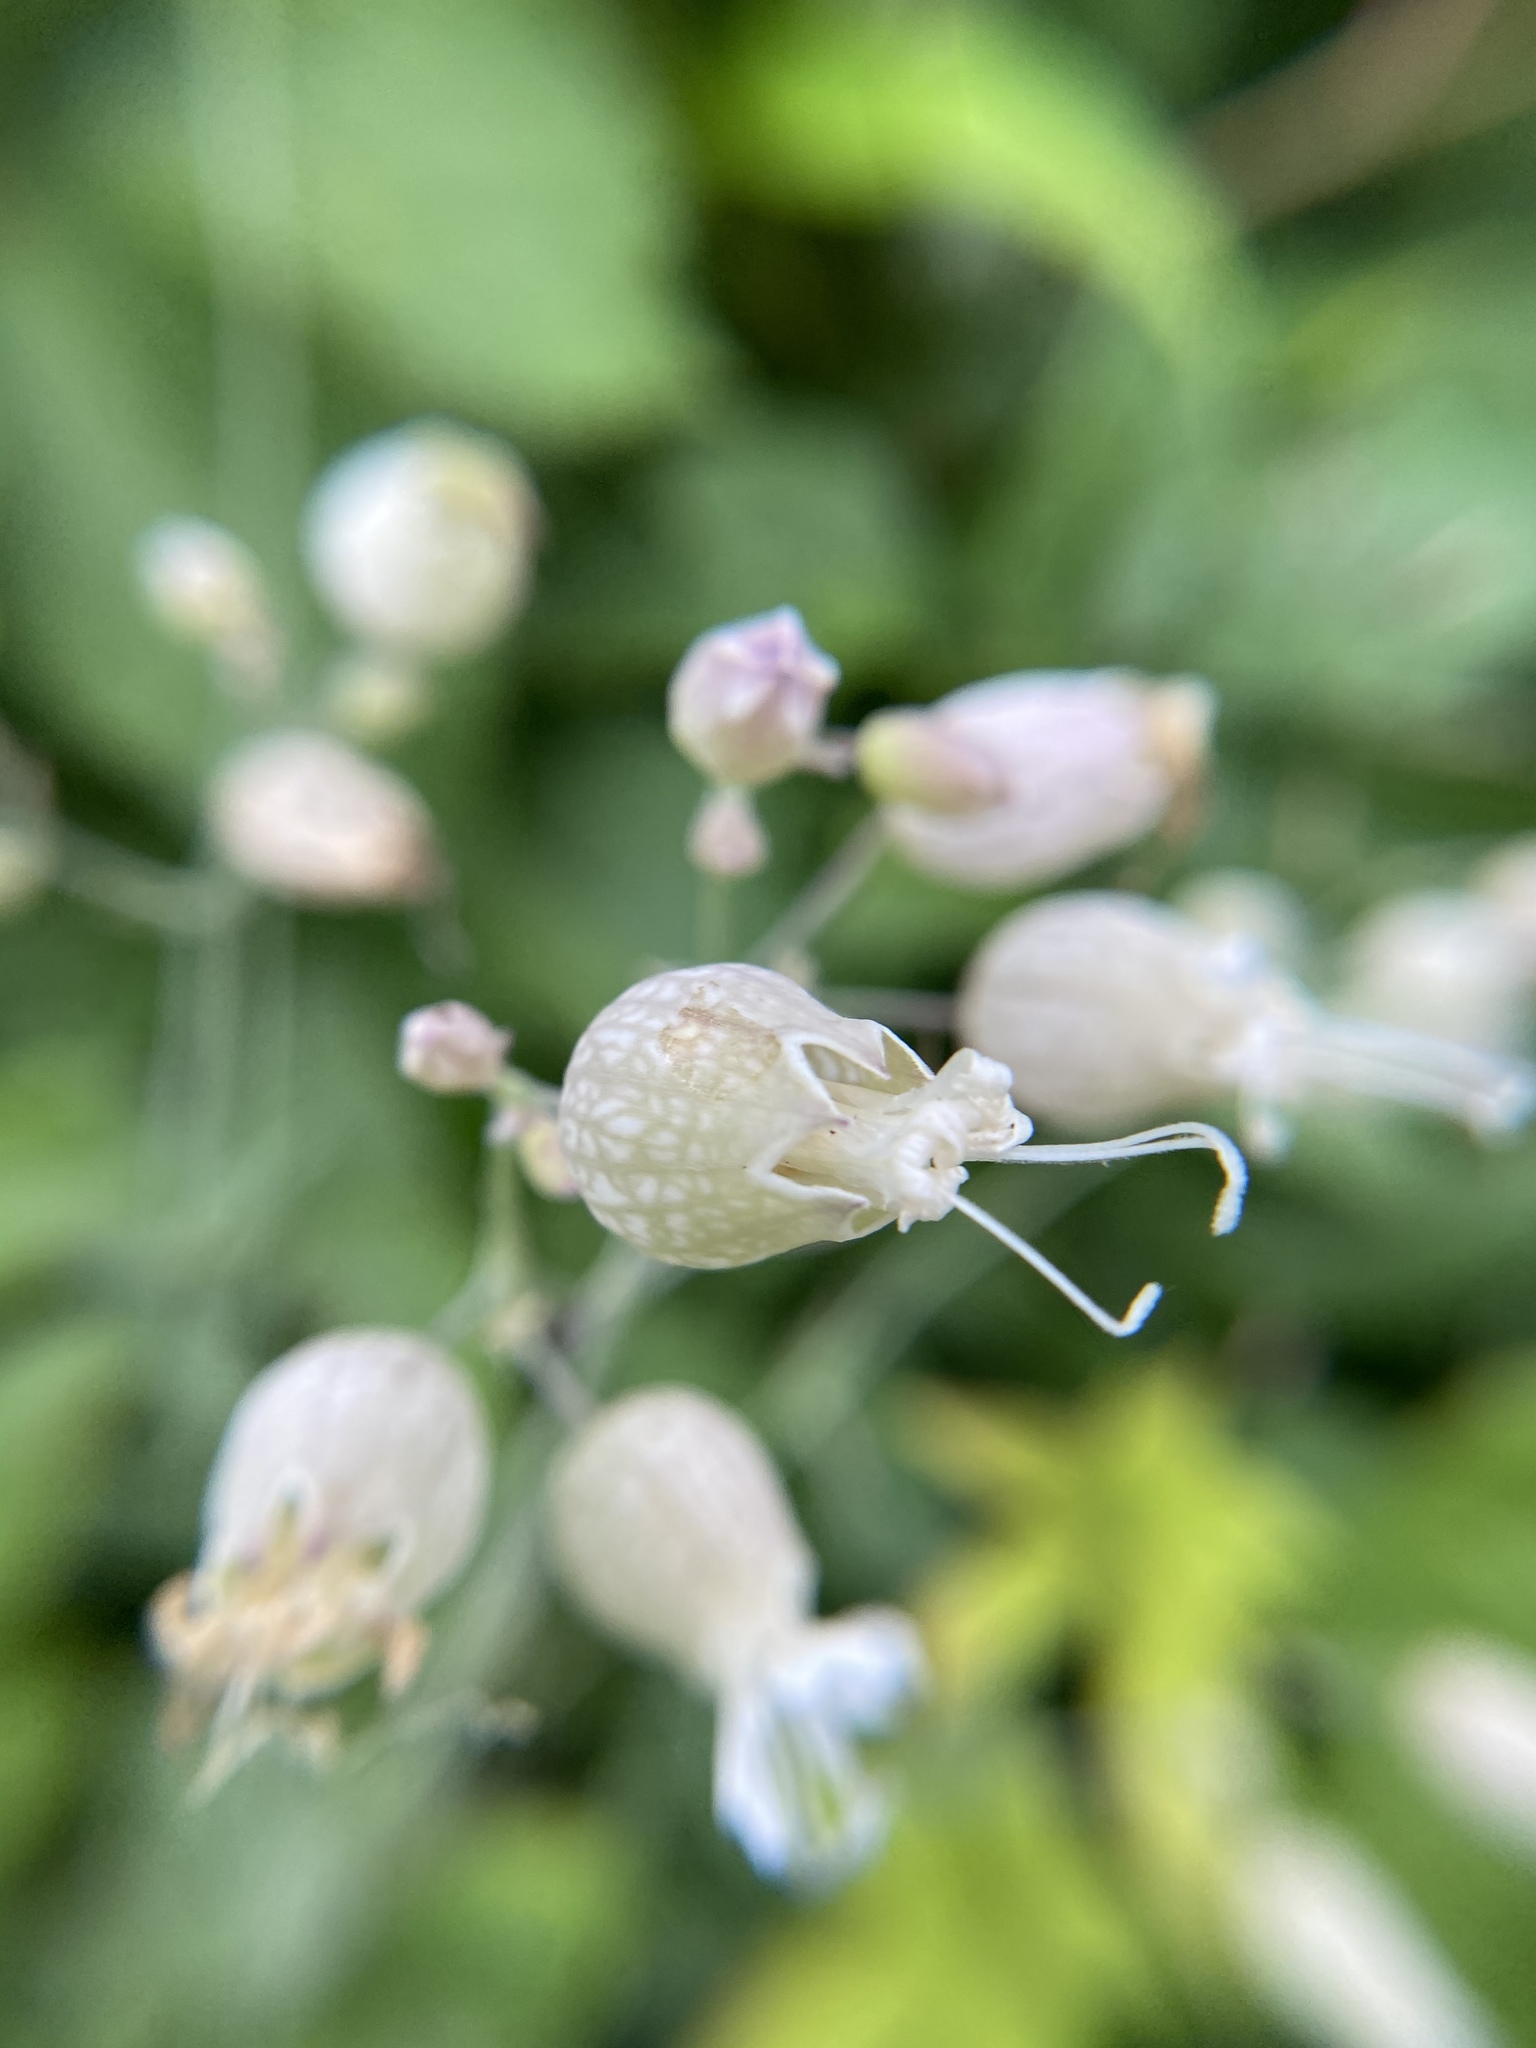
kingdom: Plantae
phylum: Tracheophyta
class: Magnoliopsida
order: Caryophyllales
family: Caryophyllaceae
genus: Silene
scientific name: Silene vulgaris
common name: Bladder campion
